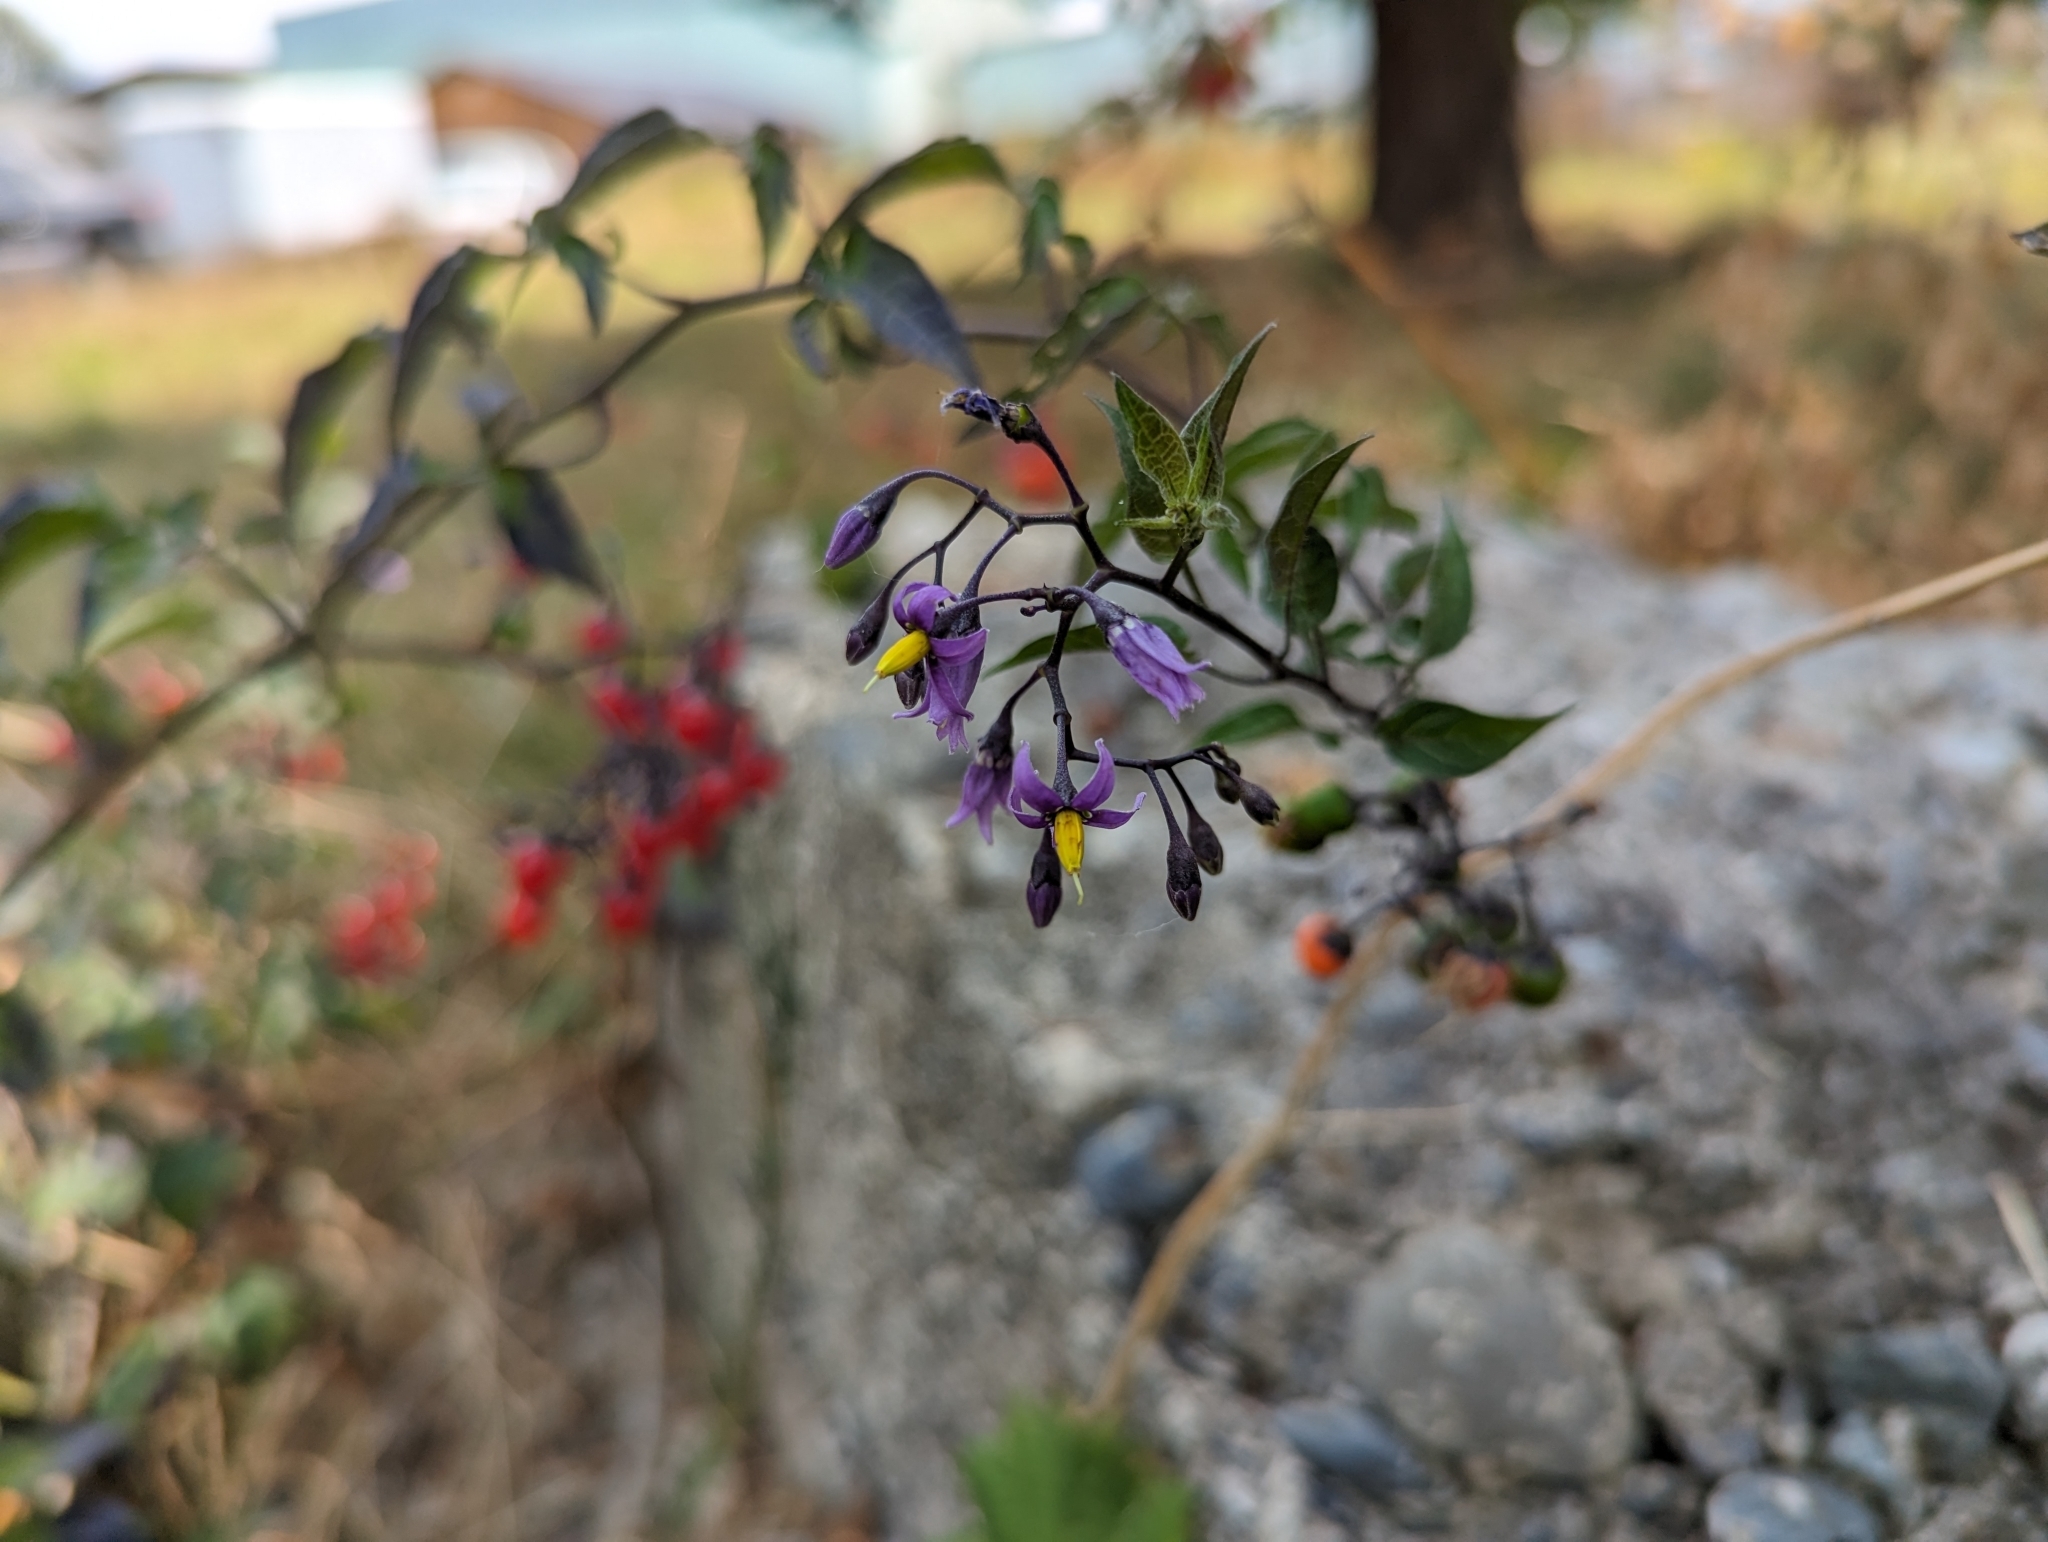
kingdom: Plantae
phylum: Tracheophyta
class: Magnoliopsida
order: Solanales
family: Solanaceae
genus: Solanum
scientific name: Solanum dulcamara
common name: Climbing nightshade
